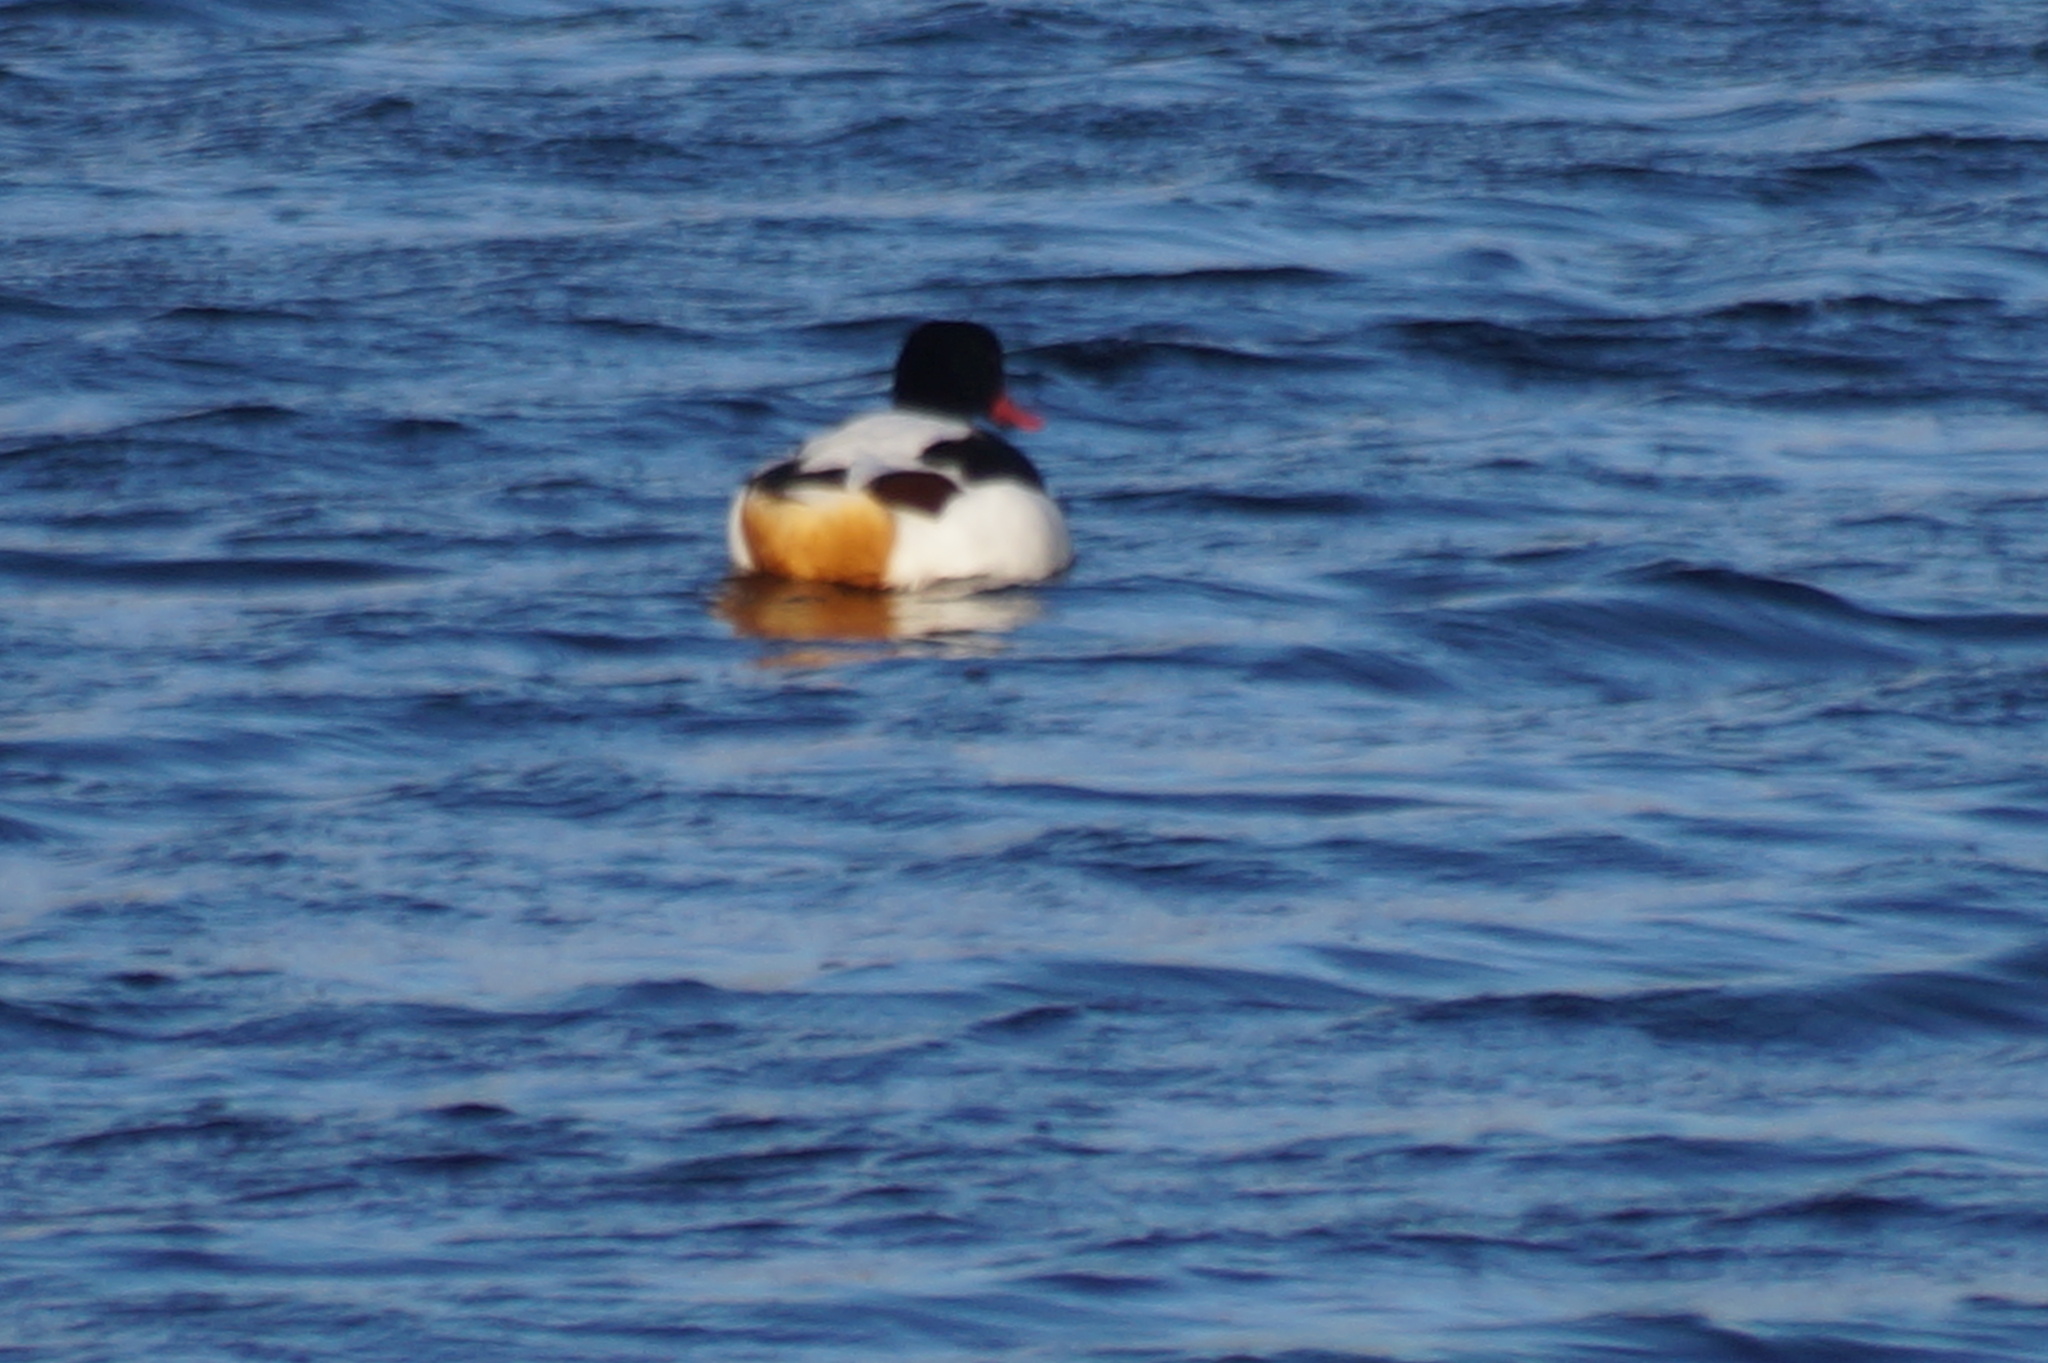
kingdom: Animalia
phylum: Chordata
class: Aves
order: Anseriformes
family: Anatidae
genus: Tadorna
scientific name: Tadorna tadorna
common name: Common shelduck
